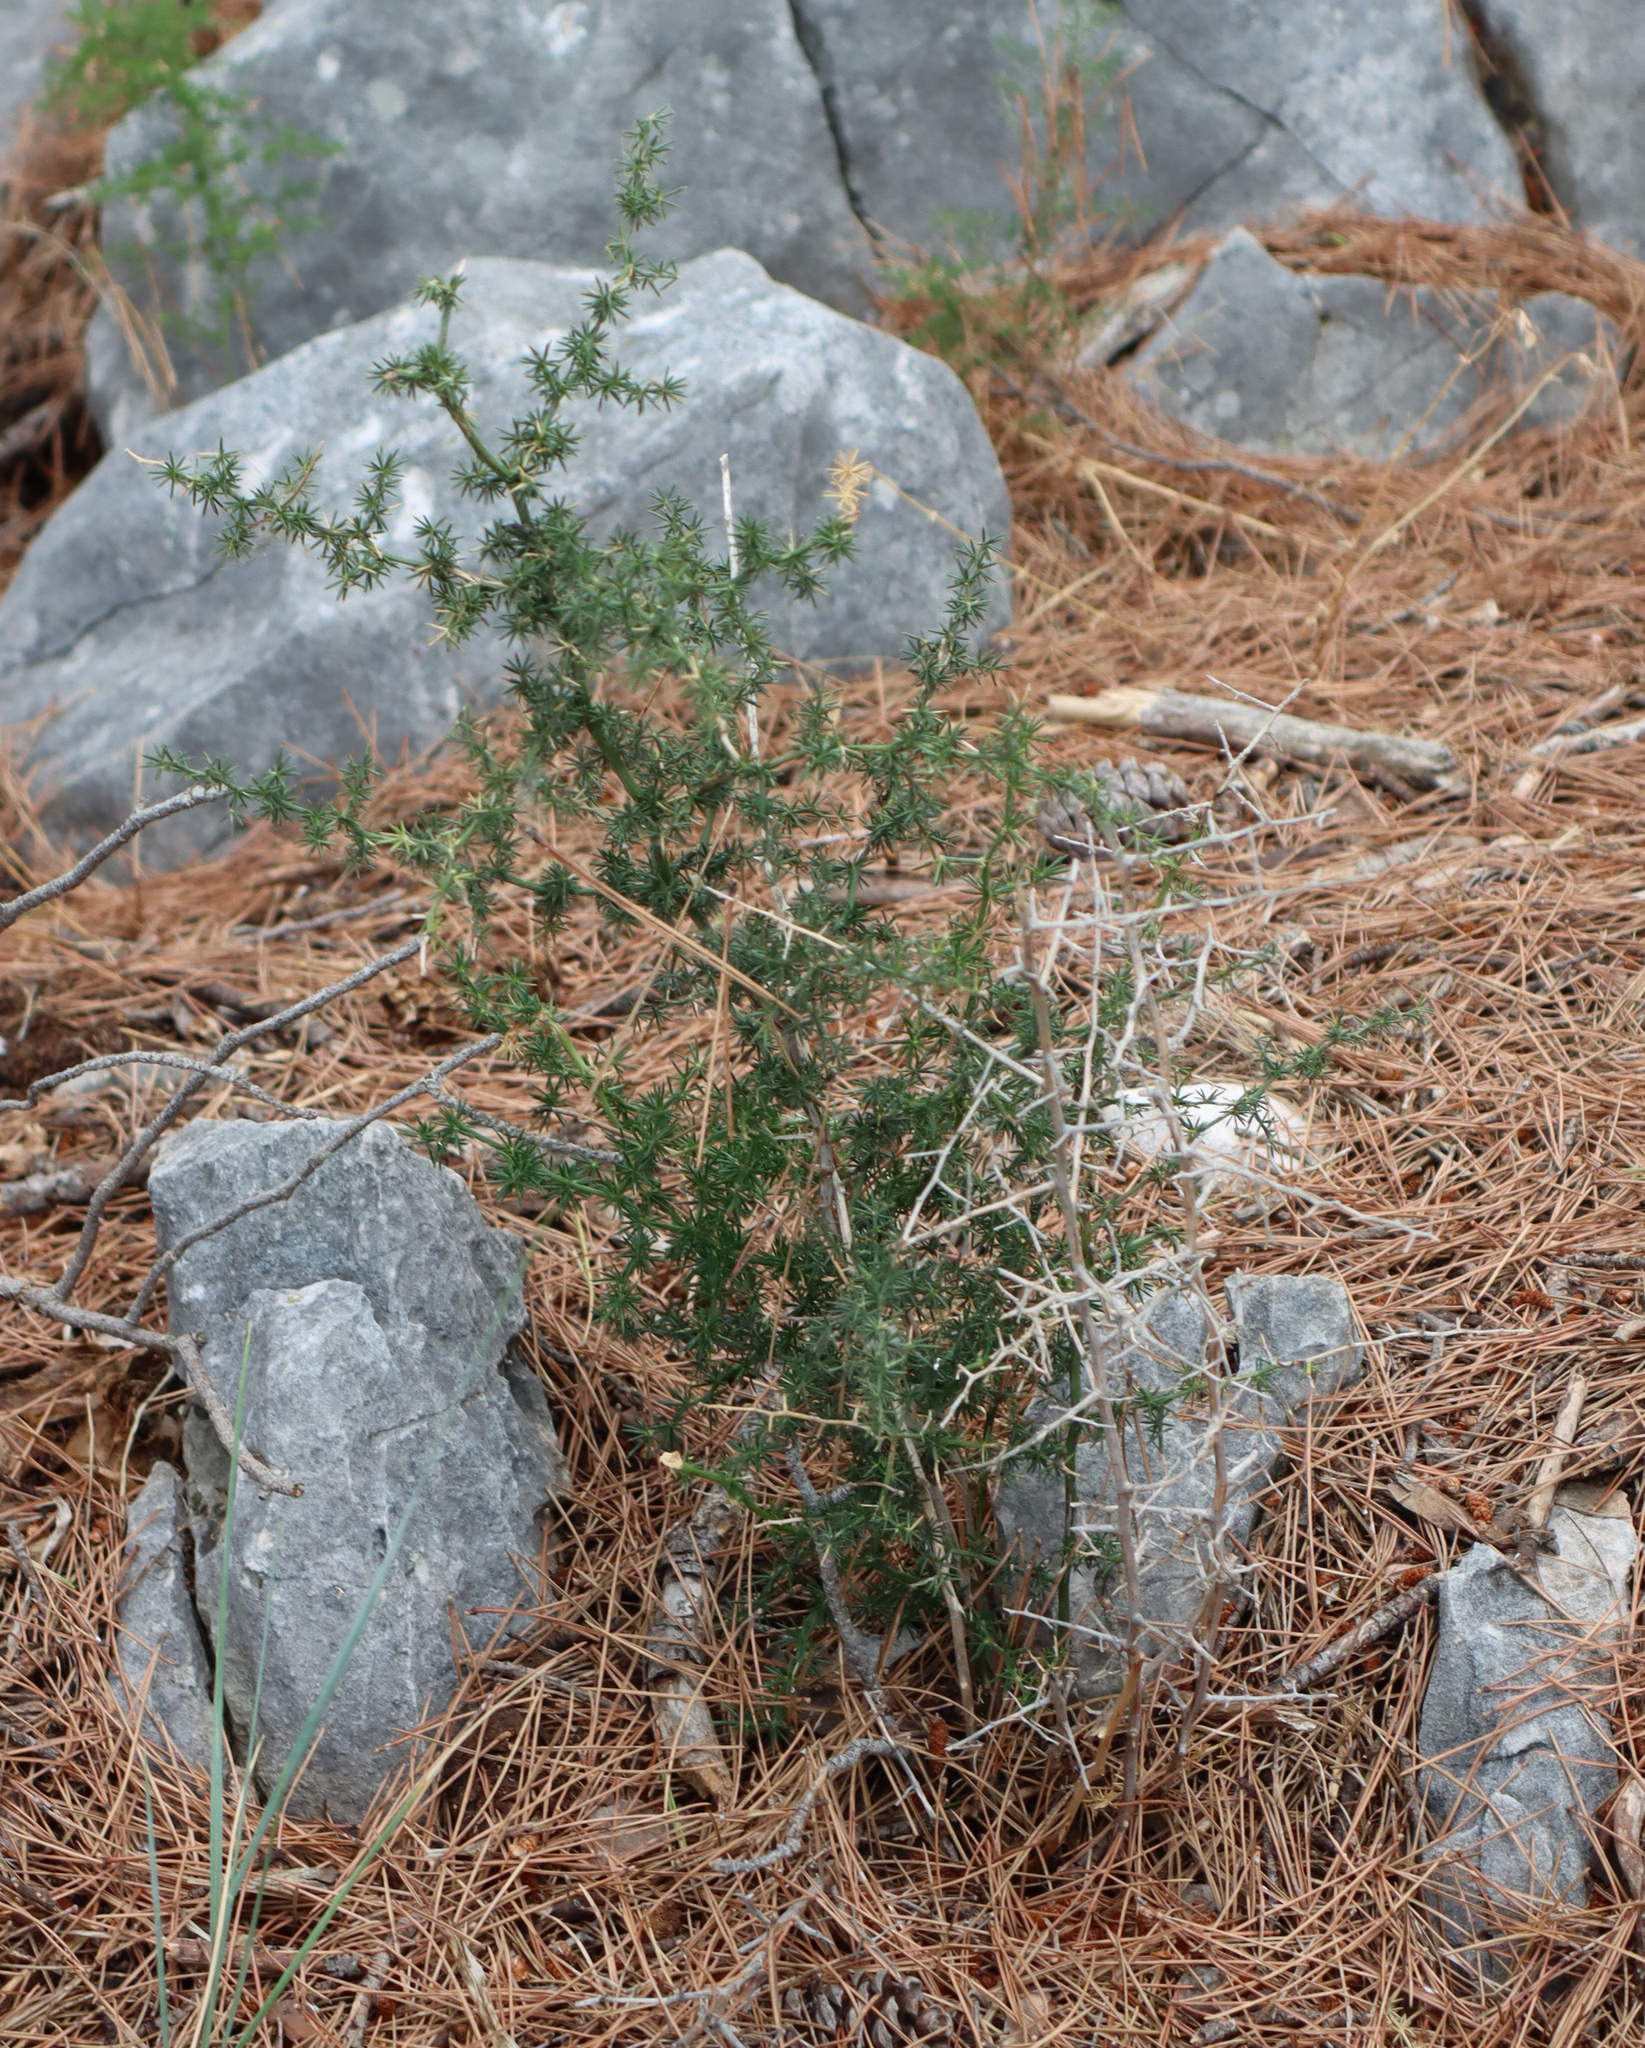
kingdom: Plantae
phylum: Tracheophyta
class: Liliopsida
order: Asparagales
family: Asparagaceae
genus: Asparagus
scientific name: Asparagus acutifolius
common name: Wild asparagus
